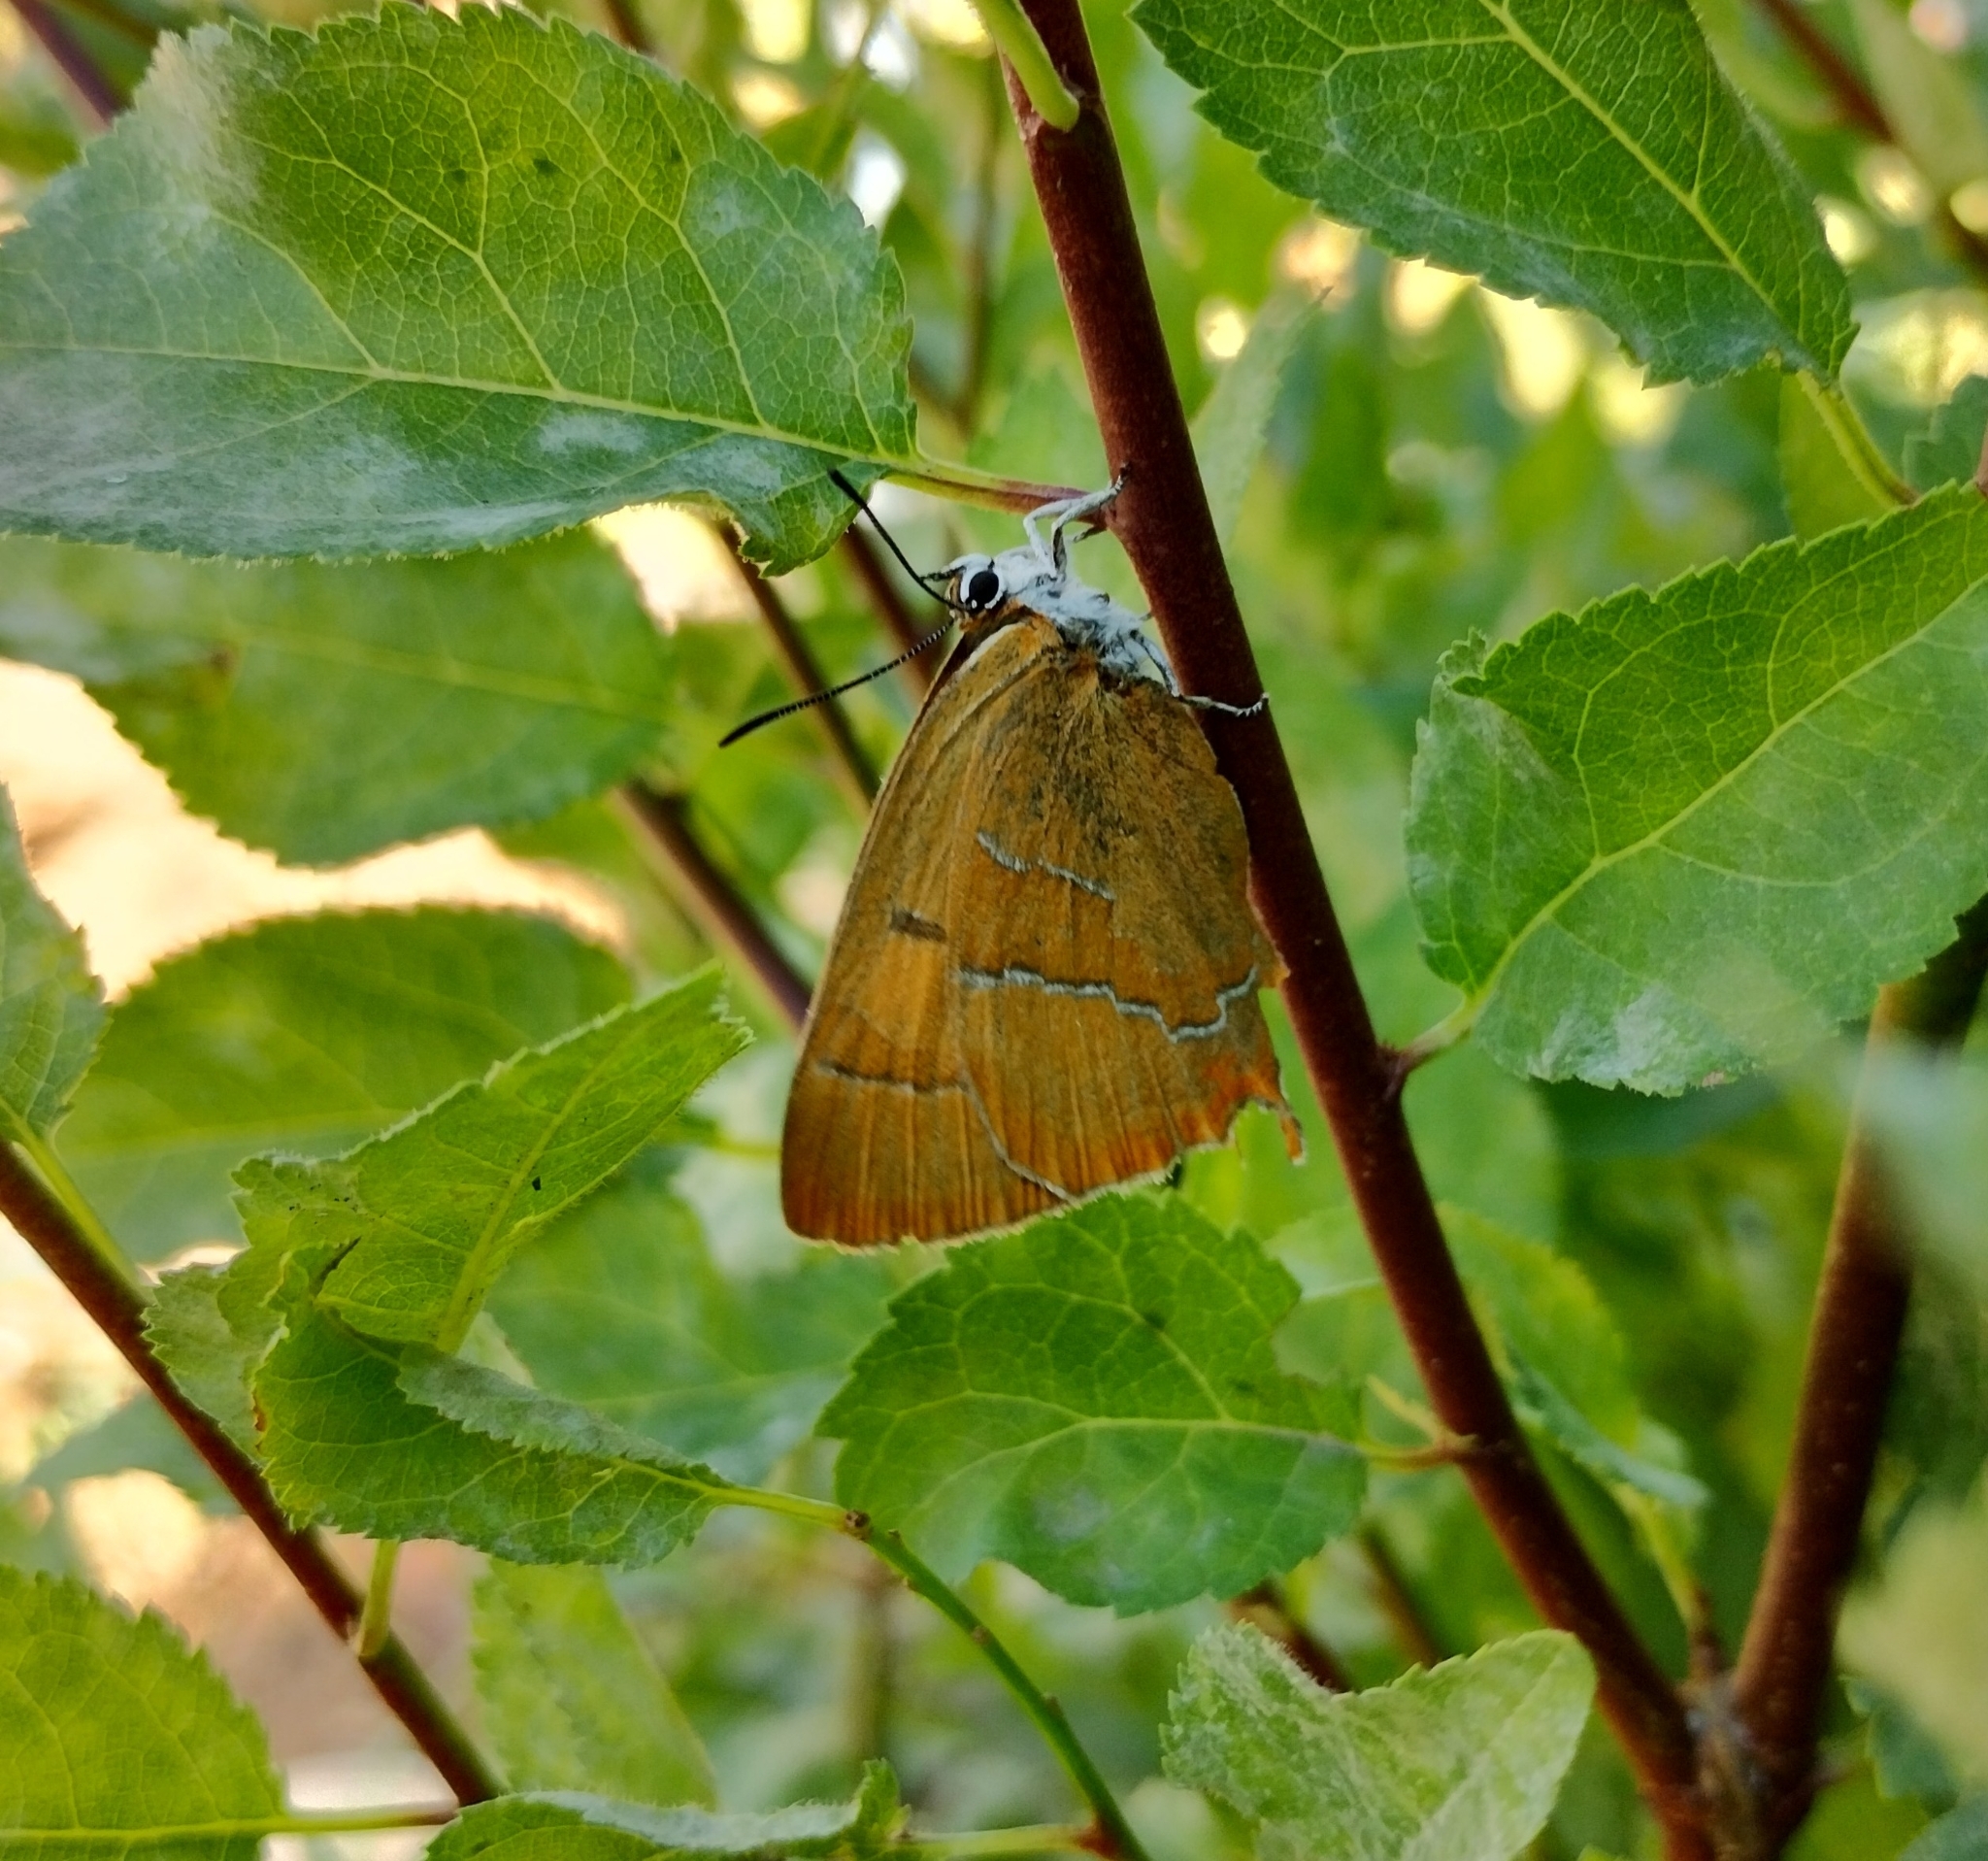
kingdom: Animalia
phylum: Arthropoda
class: Insecta
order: Lepidoptera
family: Lycaenidae
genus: Thecla
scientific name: Thecla betulae
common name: Brown hairstreak
